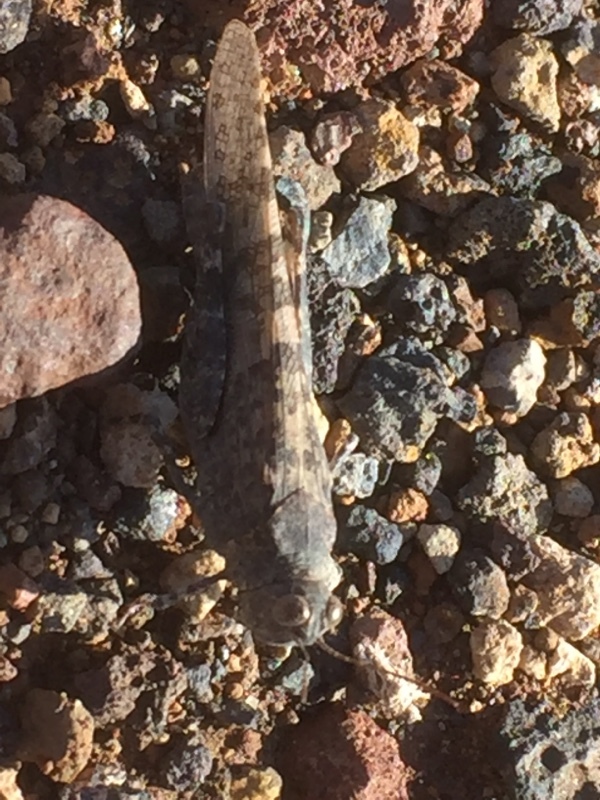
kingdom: Animalia
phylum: Arthropoda
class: Insecta
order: Orthoptera
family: Acrididae
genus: Sphingonotus
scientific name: Sphingonotus rubescens
